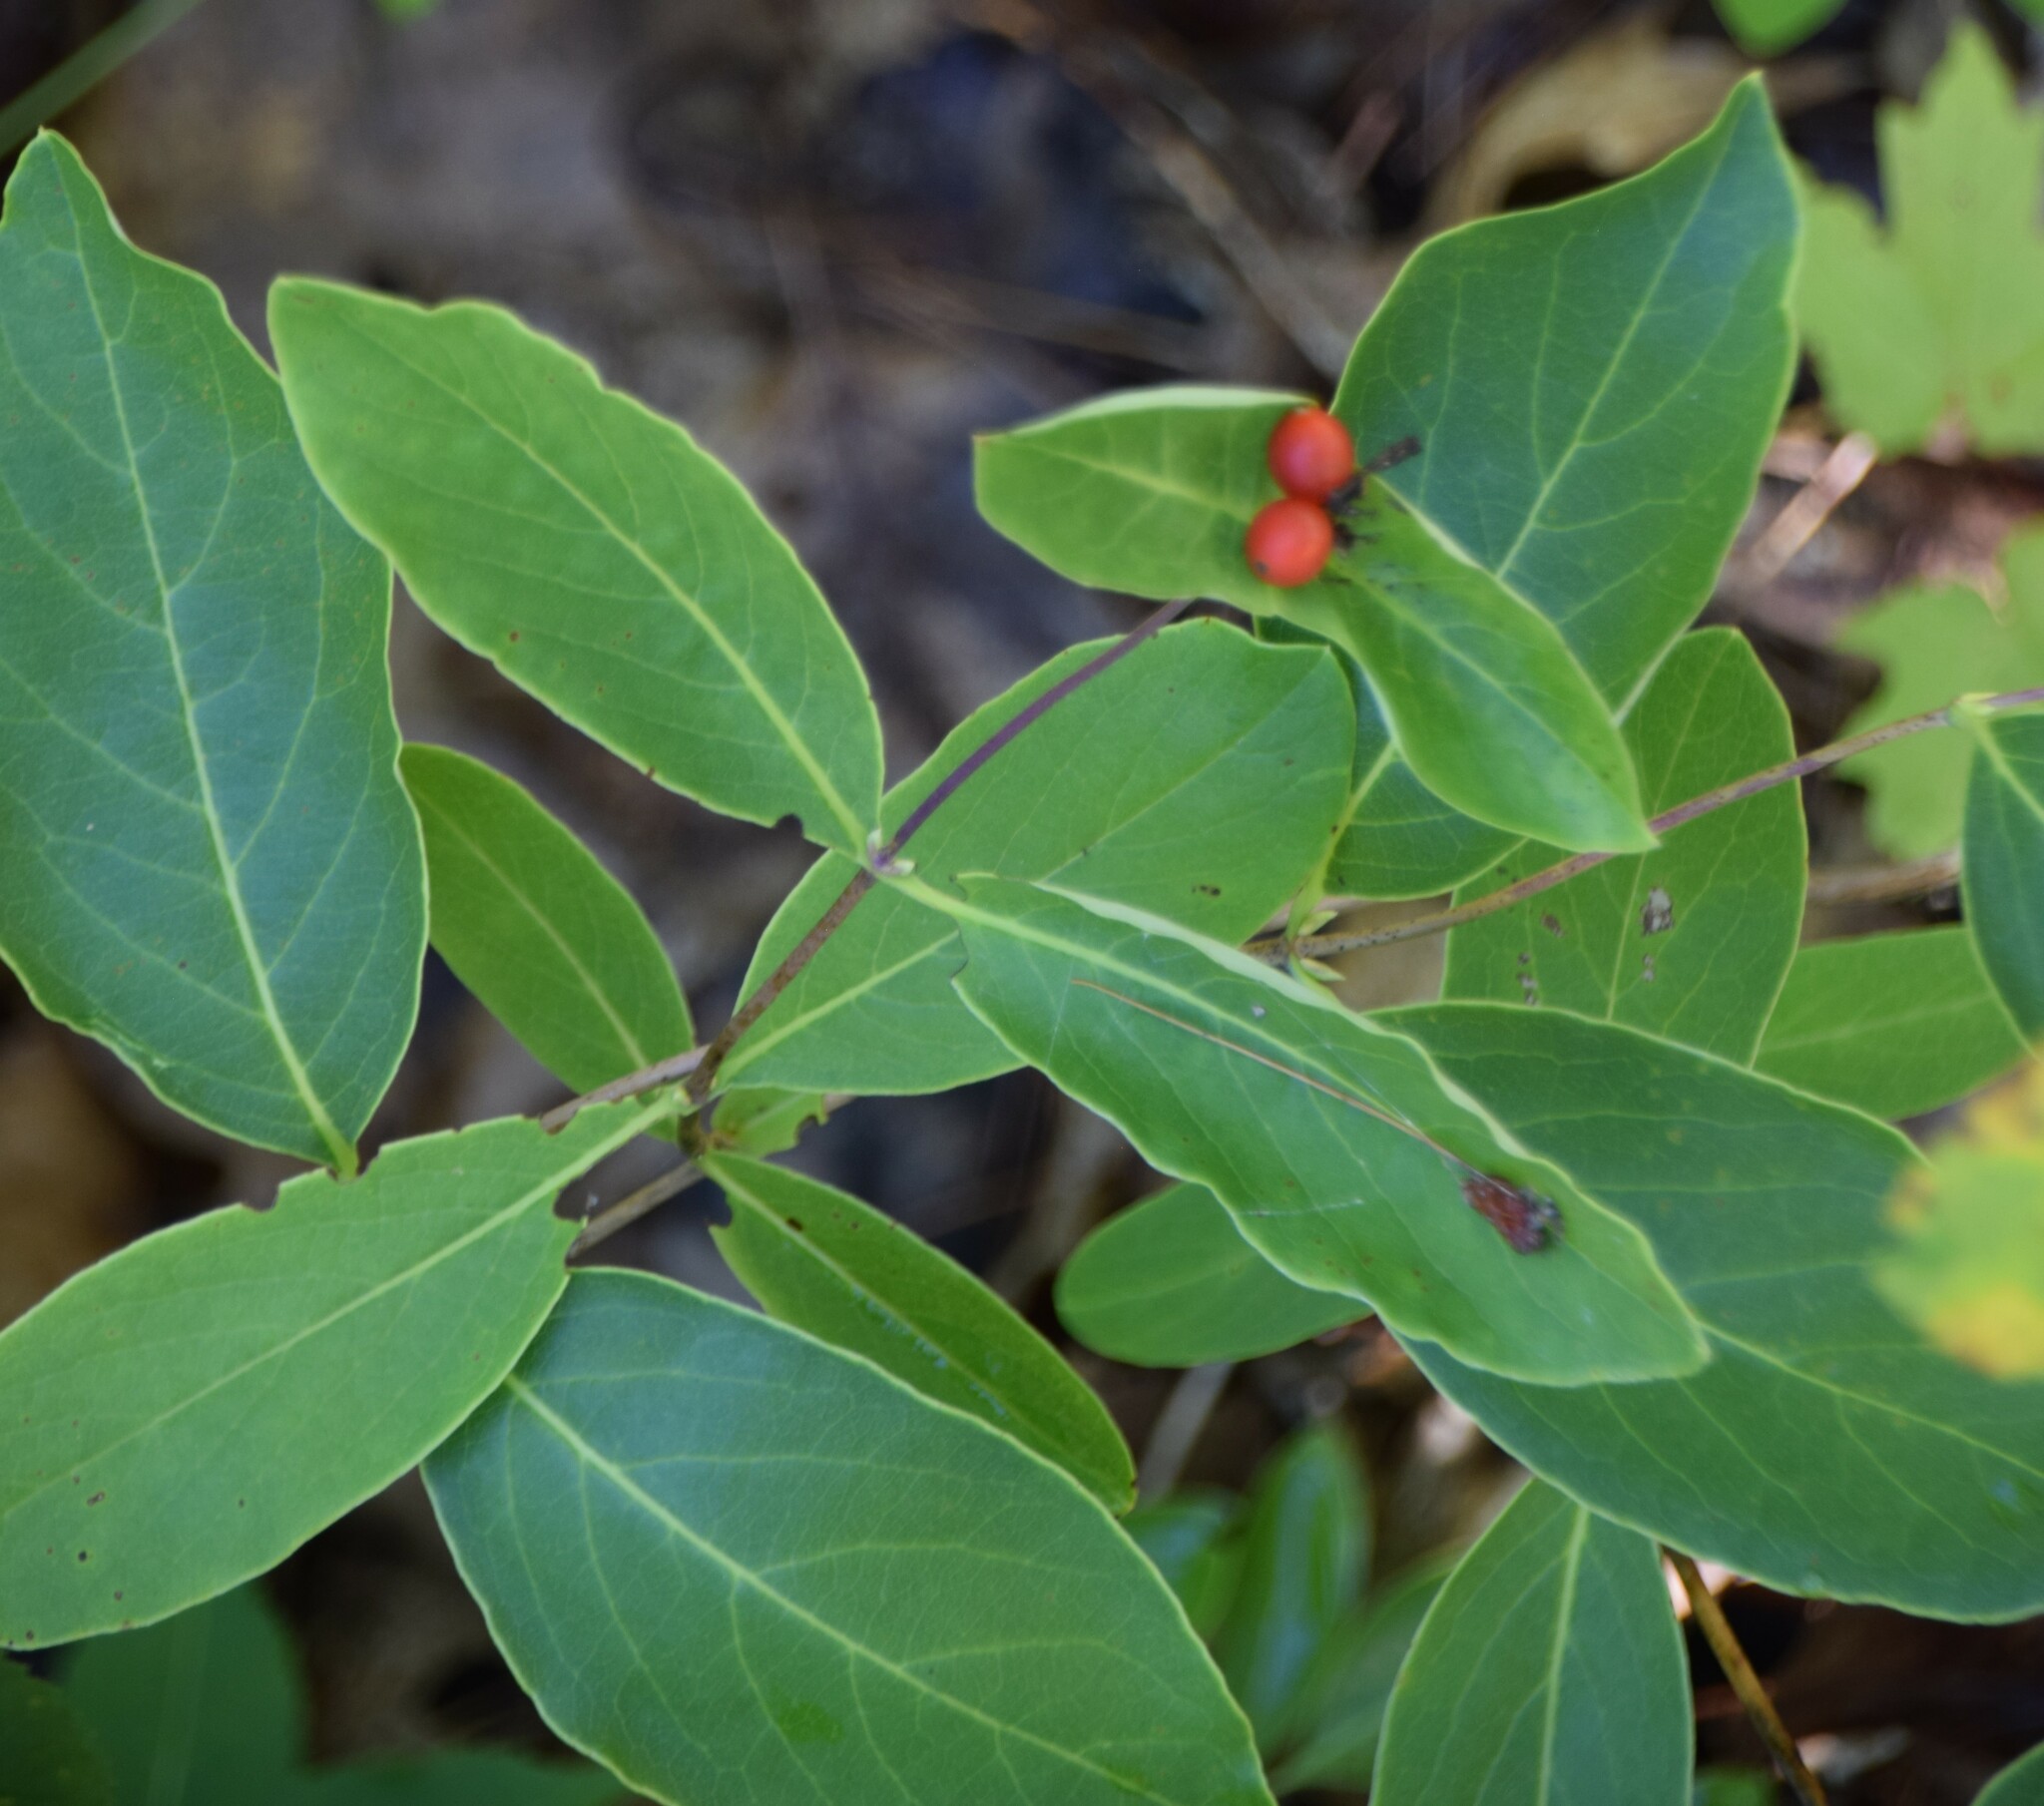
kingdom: Plantae
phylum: Tracheophyta
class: Magnoliopsida
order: Dipsacales
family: Caprifoliaceae
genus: Lonicera
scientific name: Lonicera dioica
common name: Limber honeysuckle
